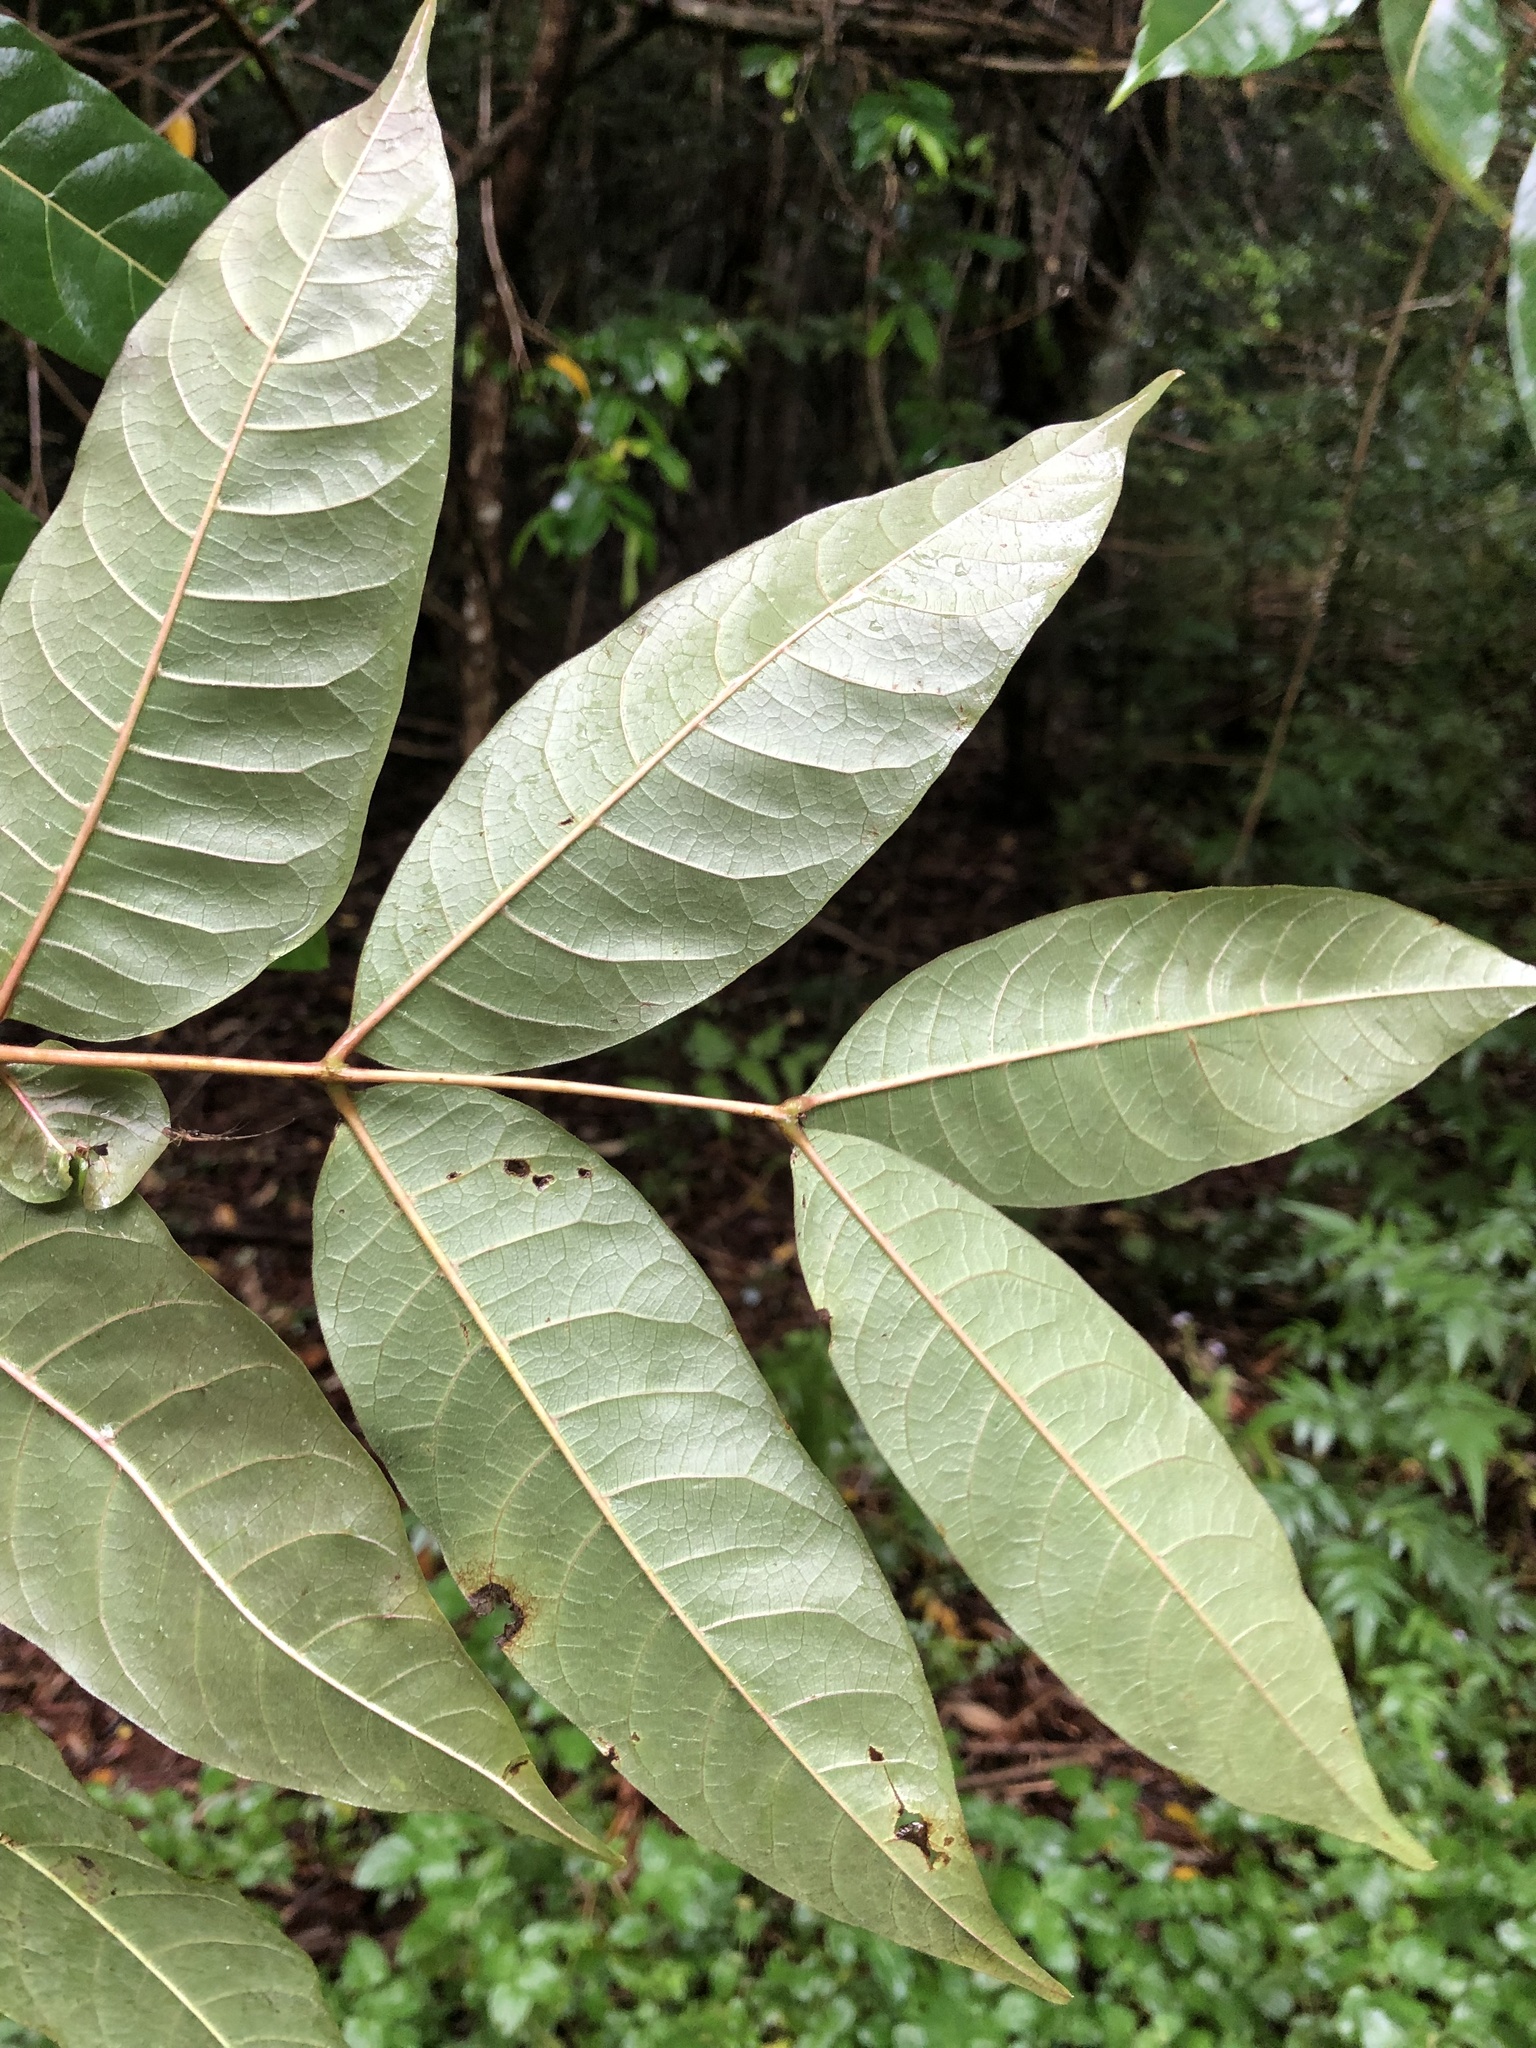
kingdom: Plantae
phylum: Tracheophyta
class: Magnoliopsida
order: Sapindales
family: Meliaceae
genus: Toona
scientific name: Toona ciliata
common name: Australian redcedar
